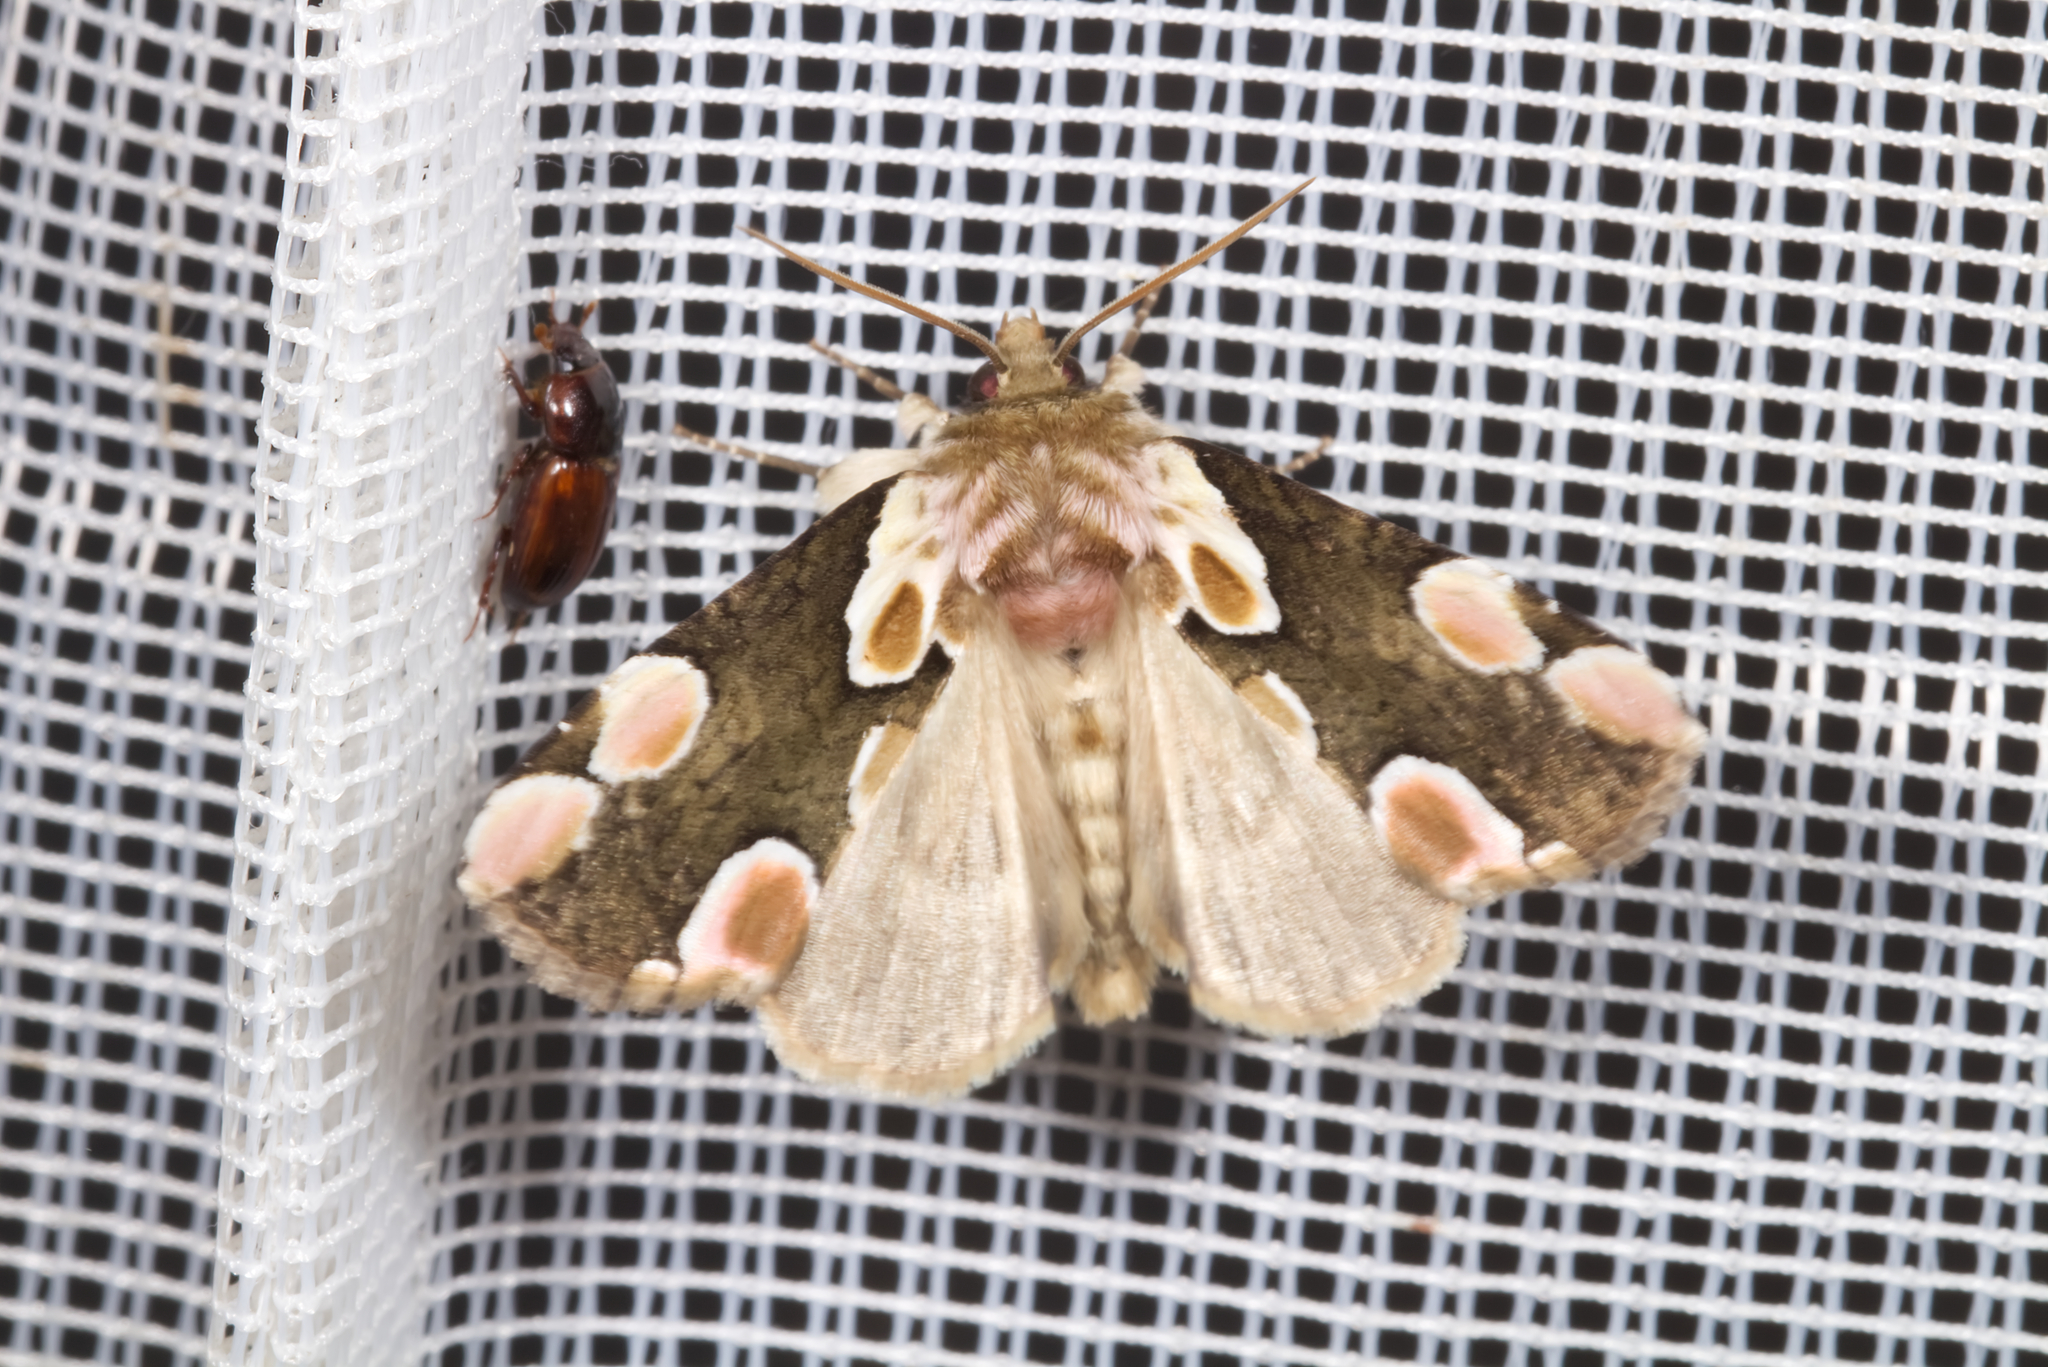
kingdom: Animalia
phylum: Arthropoda
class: Insecta
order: Lepidoptera
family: Drepanidae
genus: Thyatira
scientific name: Thyatira batis
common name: Peach blossom
